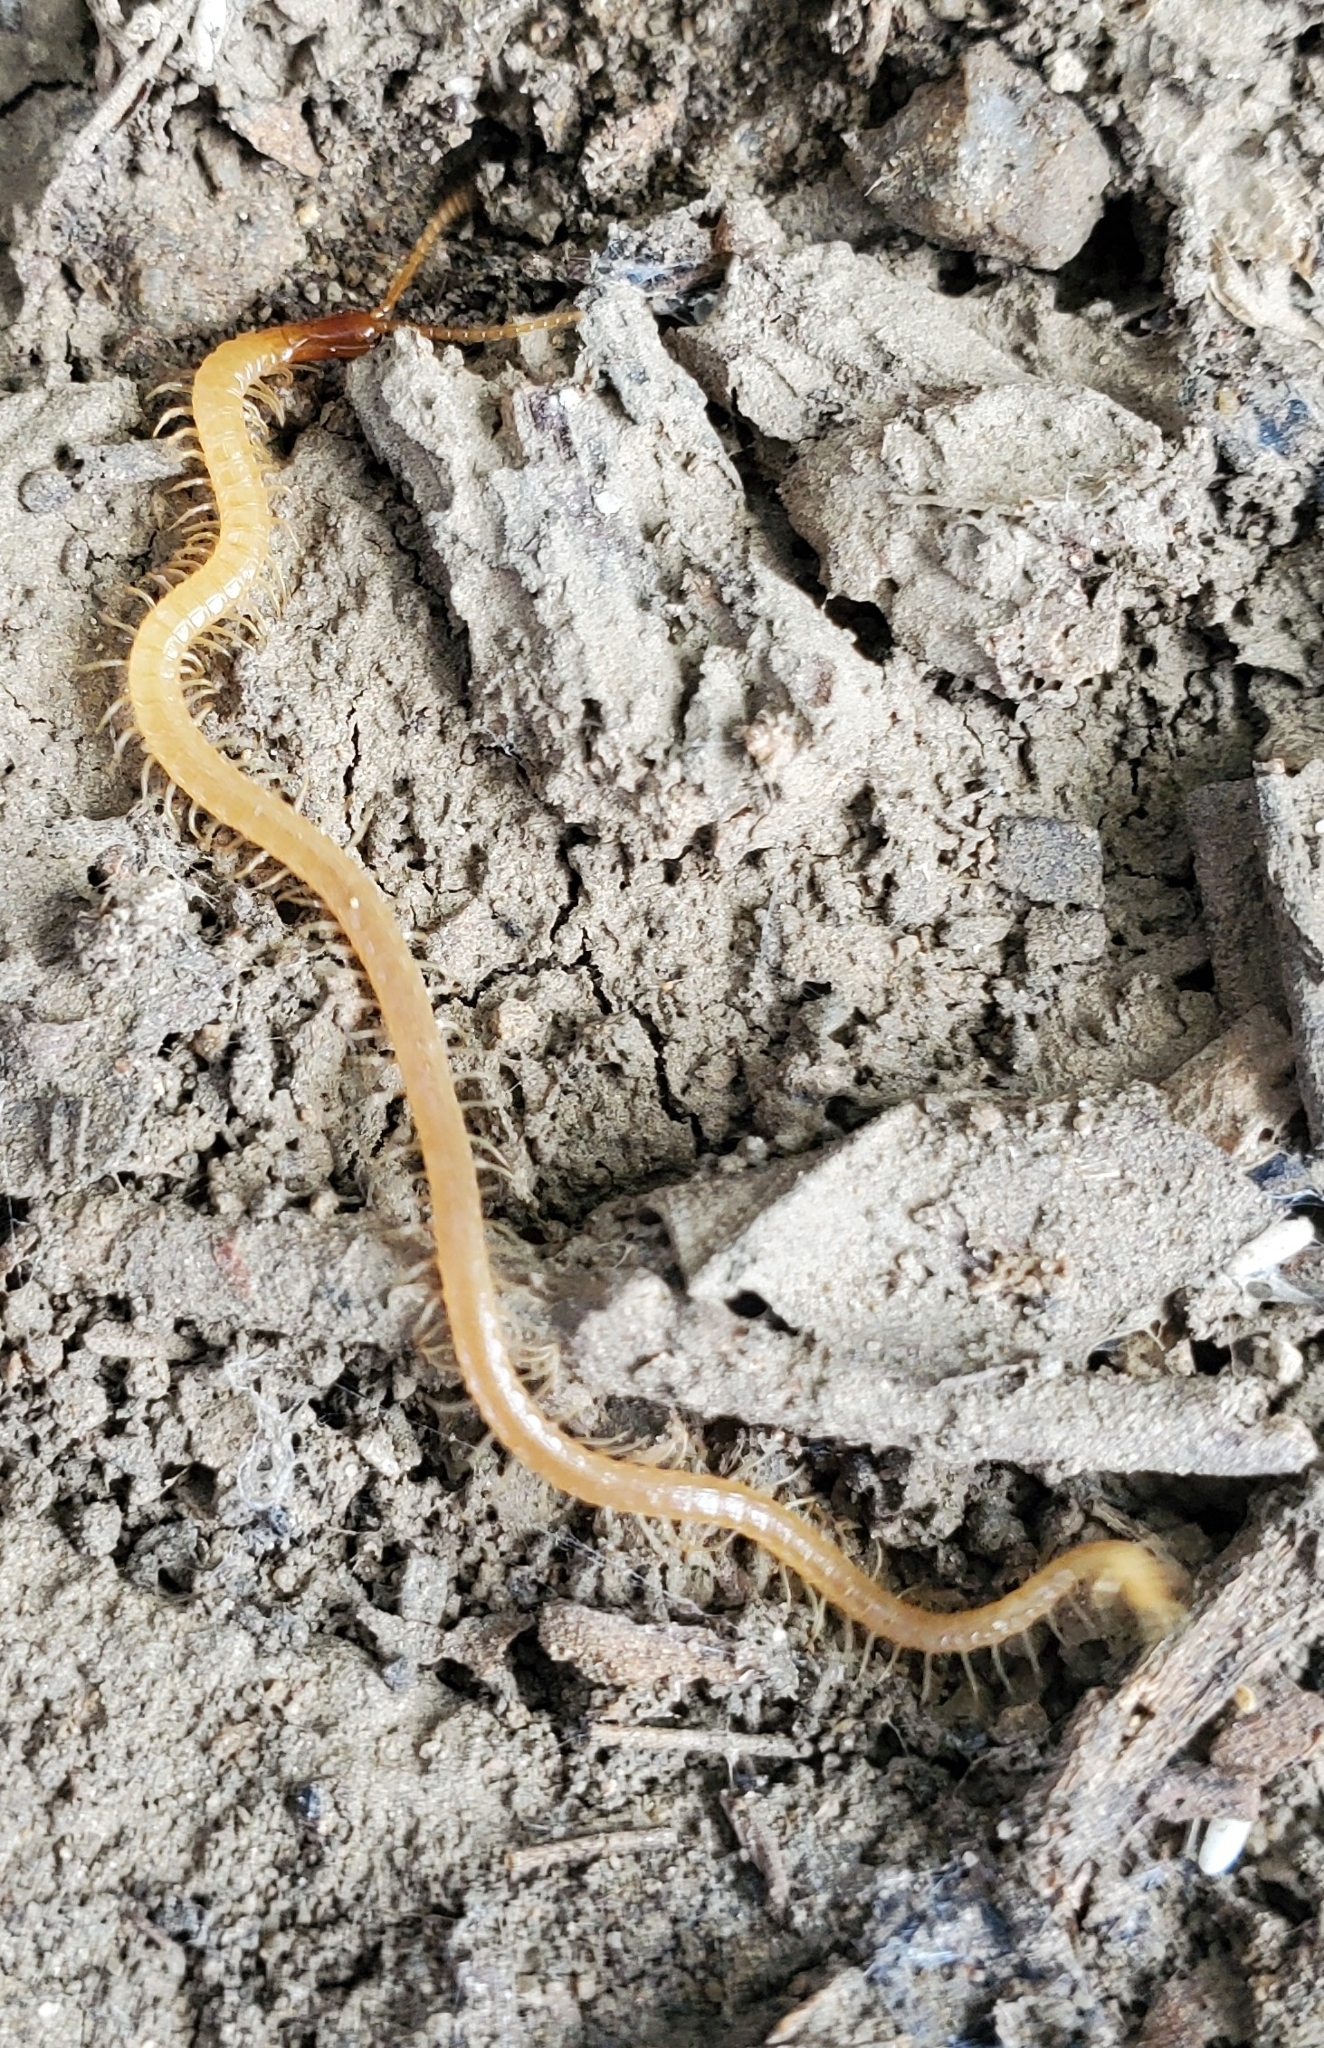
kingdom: Animalia
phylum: Arthropoda
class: Chilopoda
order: Geophilomorpha
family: Geophilidae
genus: Taiyuna
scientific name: Taiyuna isantus
